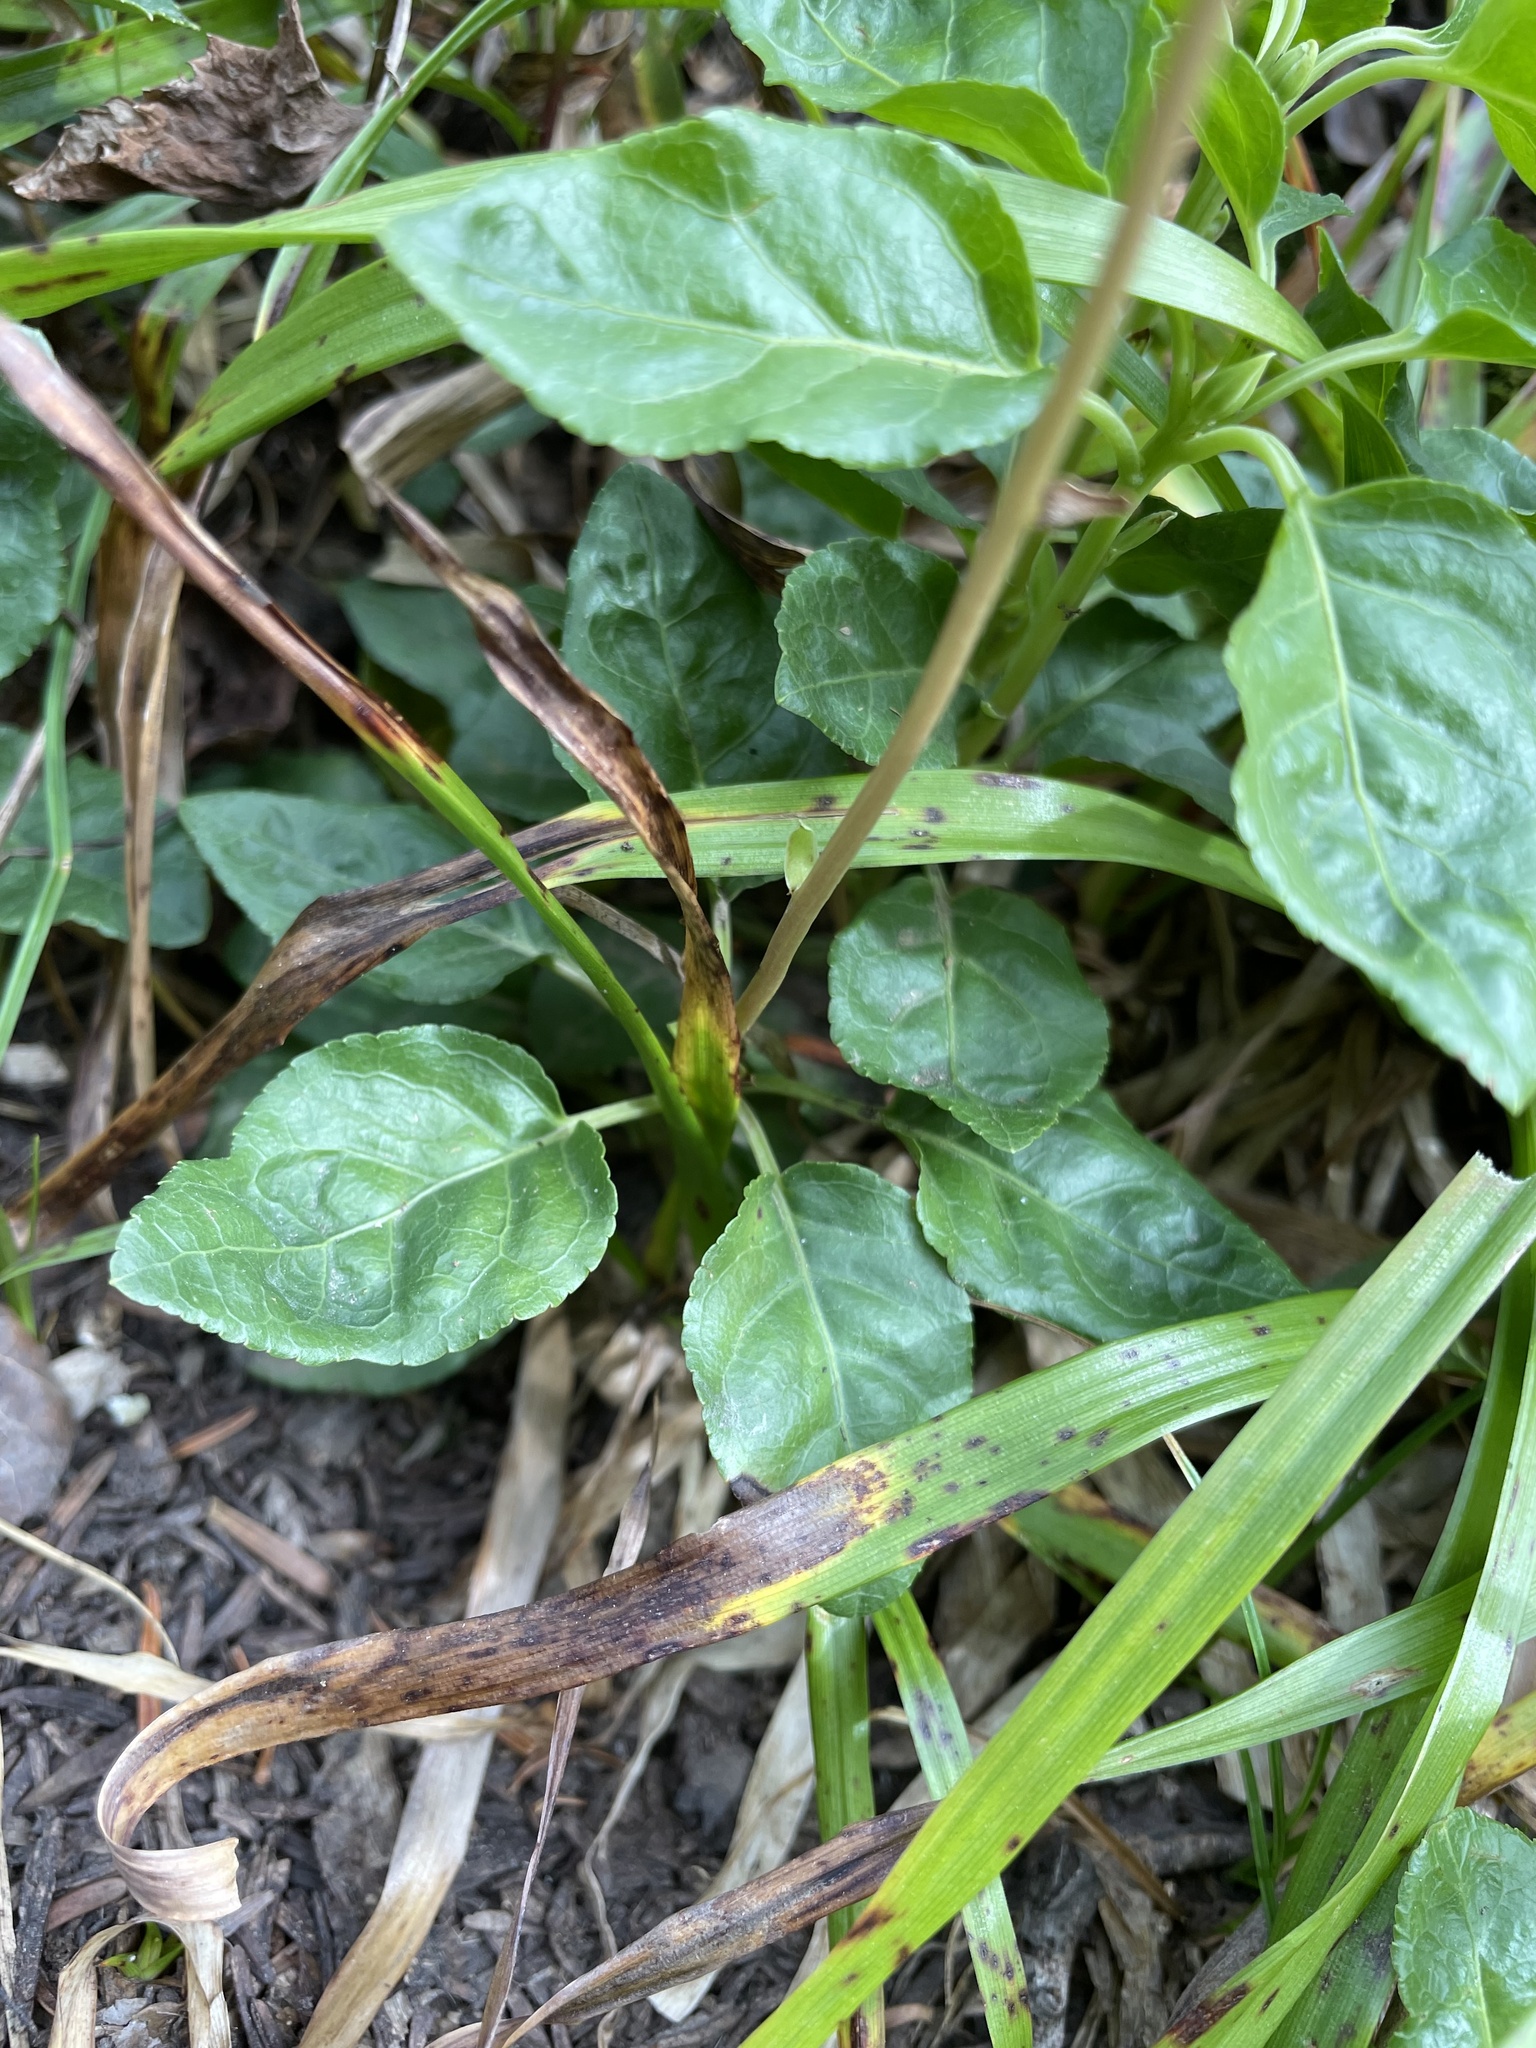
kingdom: Plantae
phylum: Tracheophyta
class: Magnoliopsida
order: Ericales
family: Ericaceae
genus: Orthilia
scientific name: Orthilia secunda
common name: One-sided orthilia
